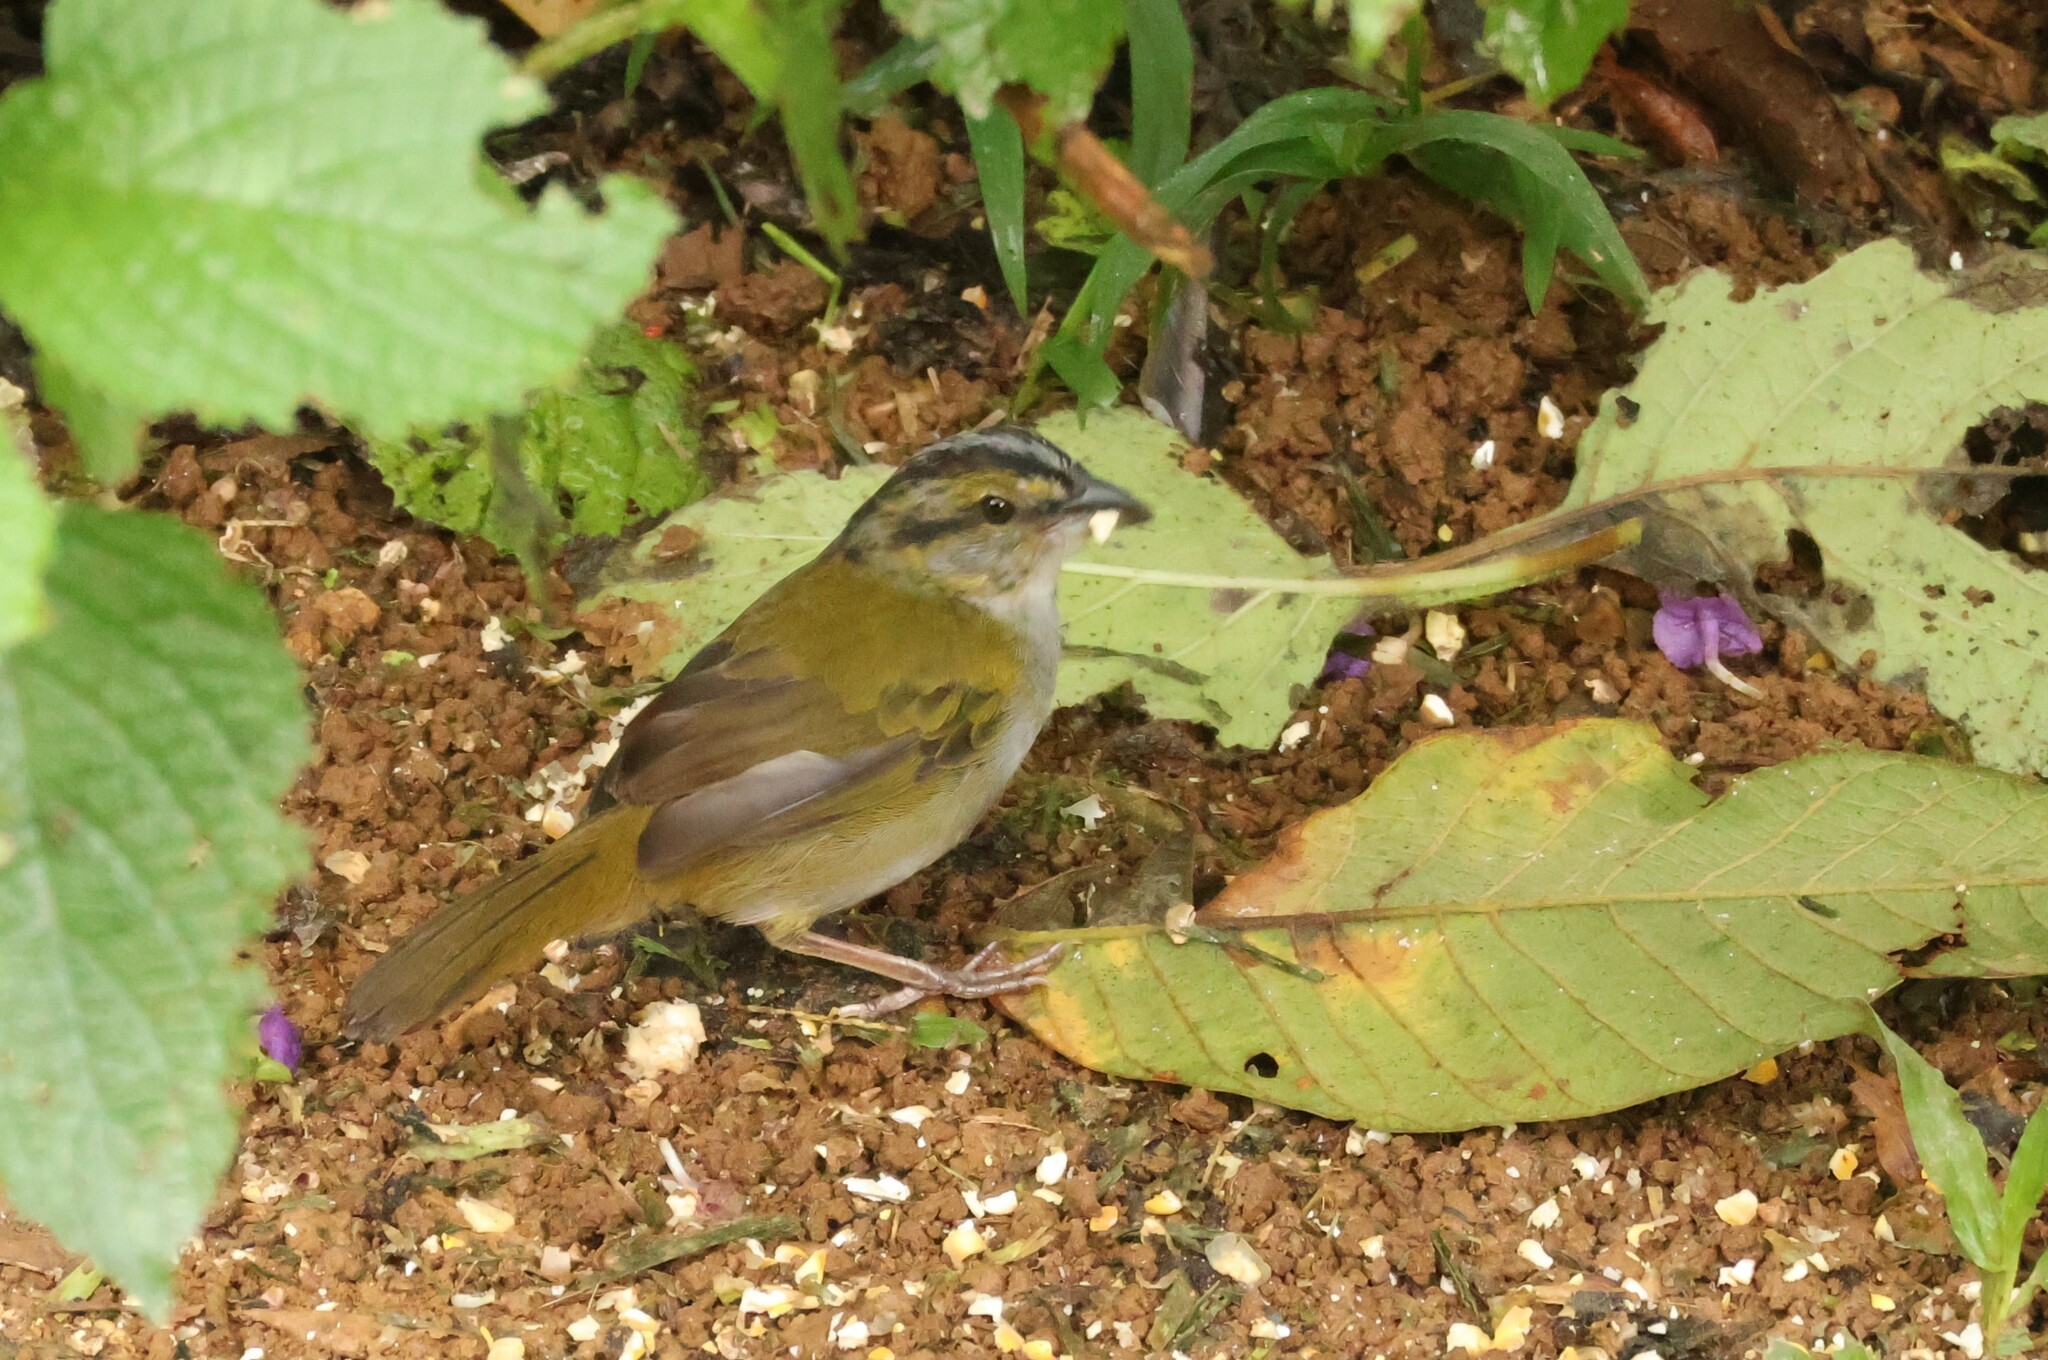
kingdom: Animalia
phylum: Chordata
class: Aves
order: Passeriformes
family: Passerellidae
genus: Arremonops
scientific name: Arremonops conirostris
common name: Black-striped sparrow
